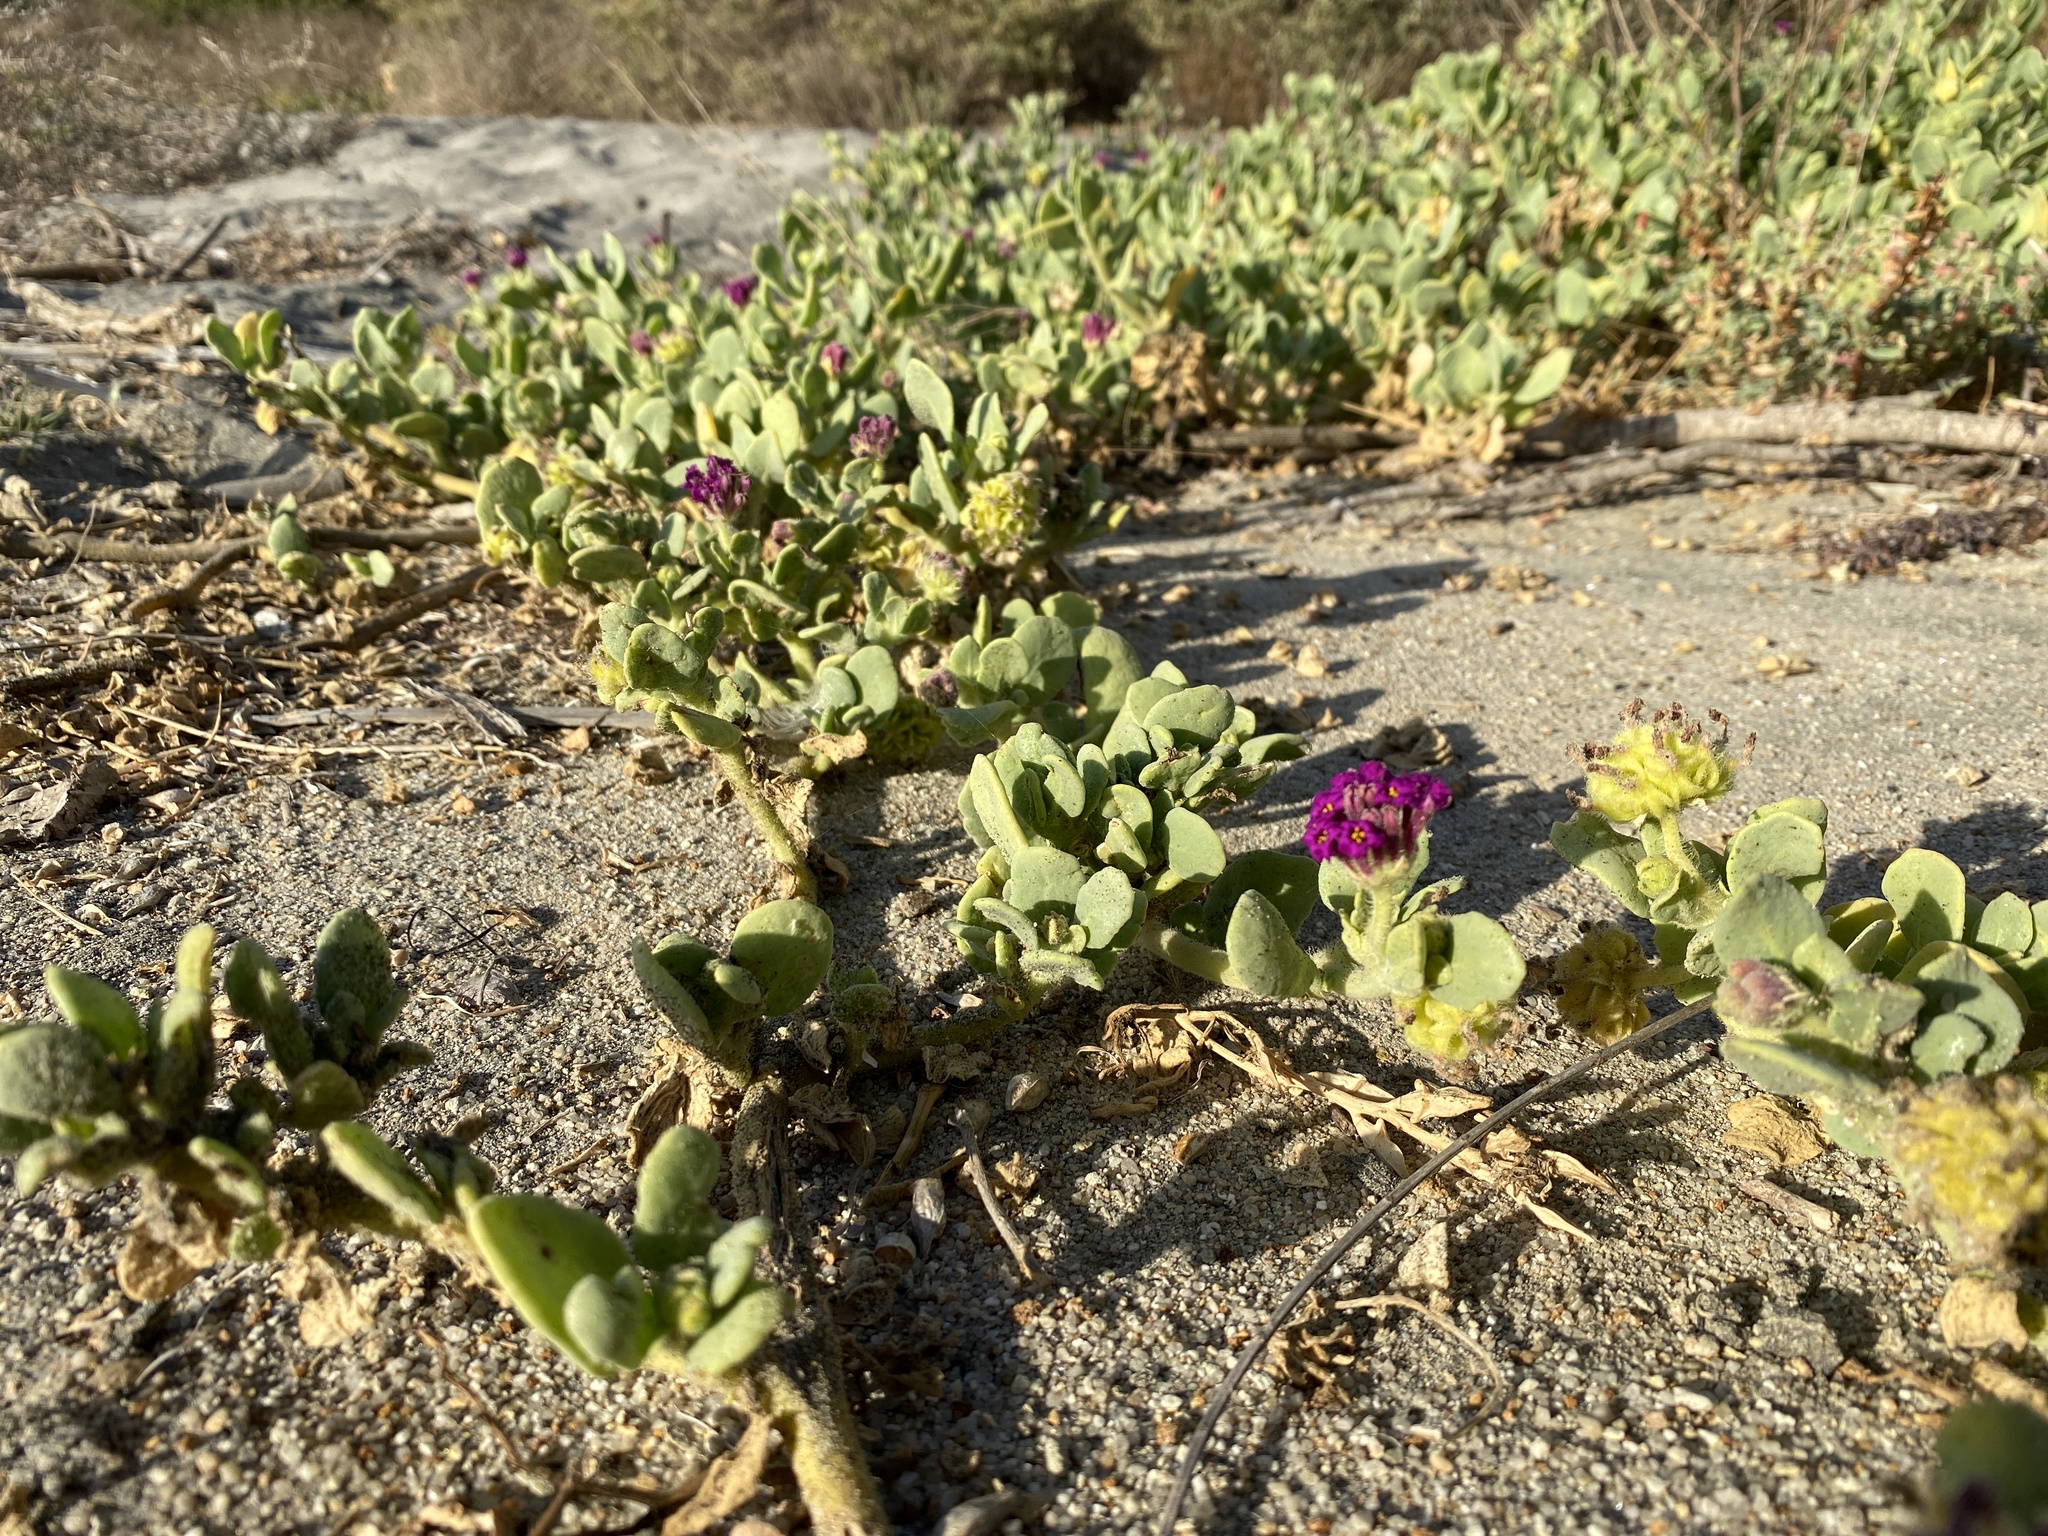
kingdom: Plantae
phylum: Tracheophyta
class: Magnoliopsida
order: Caryophyllales
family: Nyctaginaceae
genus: Abronia
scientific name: Abronia maritima
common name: Red sand-verbena
